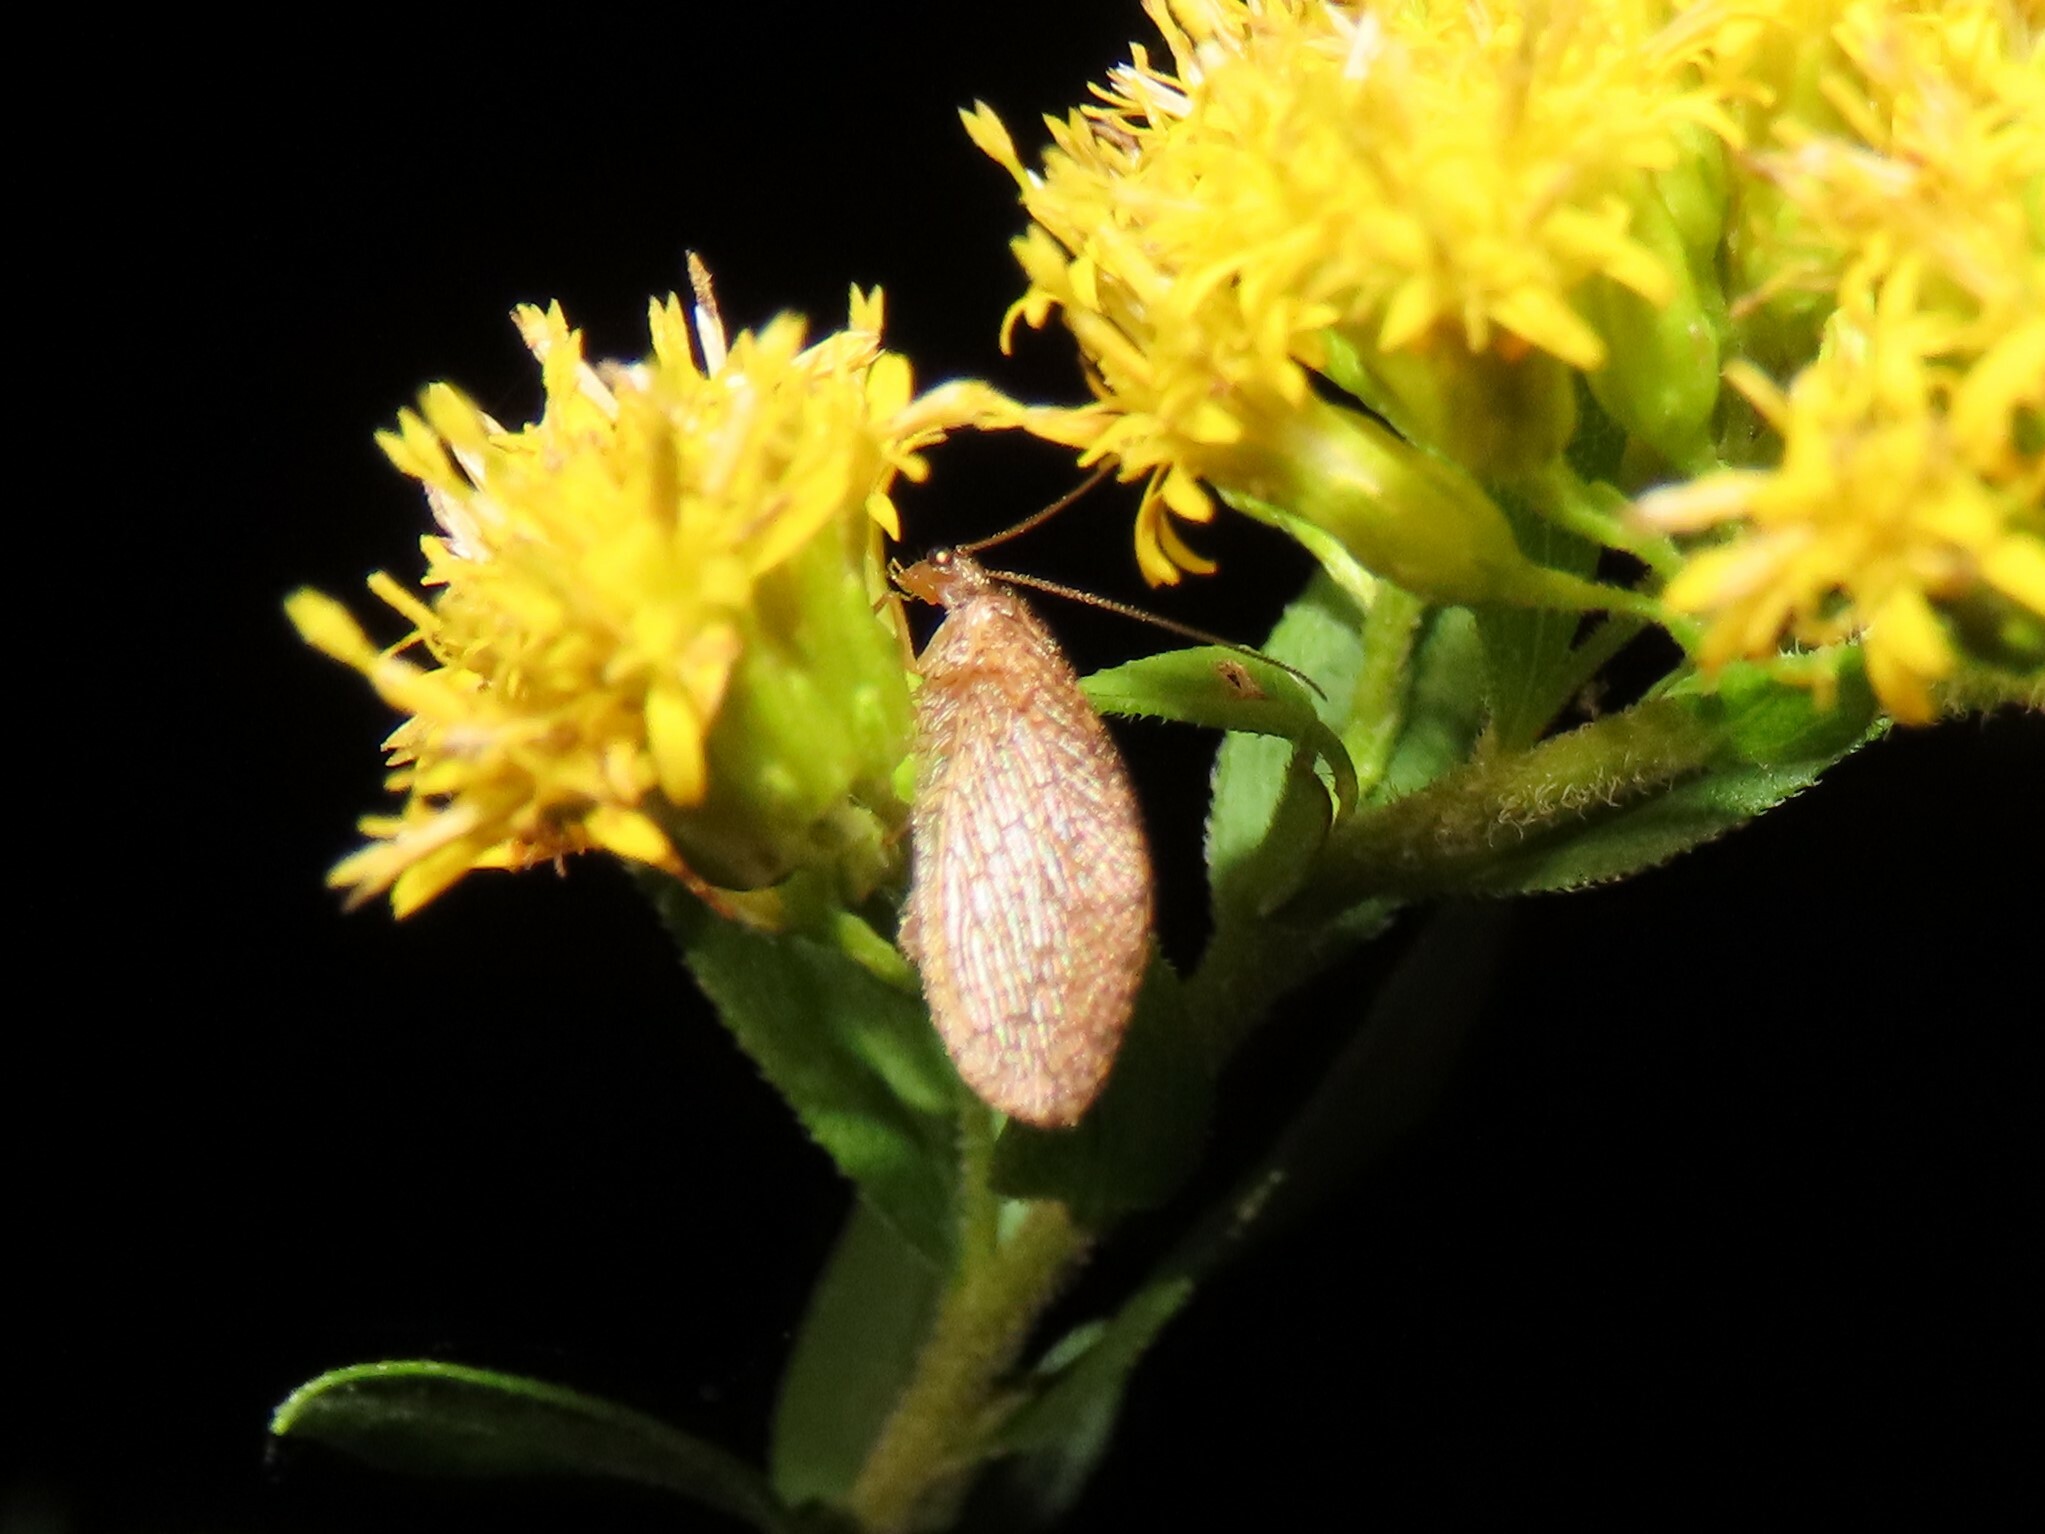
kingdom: Animalia
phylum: Arthropoda
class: Insecta
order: Neuroptera
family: Hemerobiidae
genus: Micromus
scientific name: Micromus posticus
